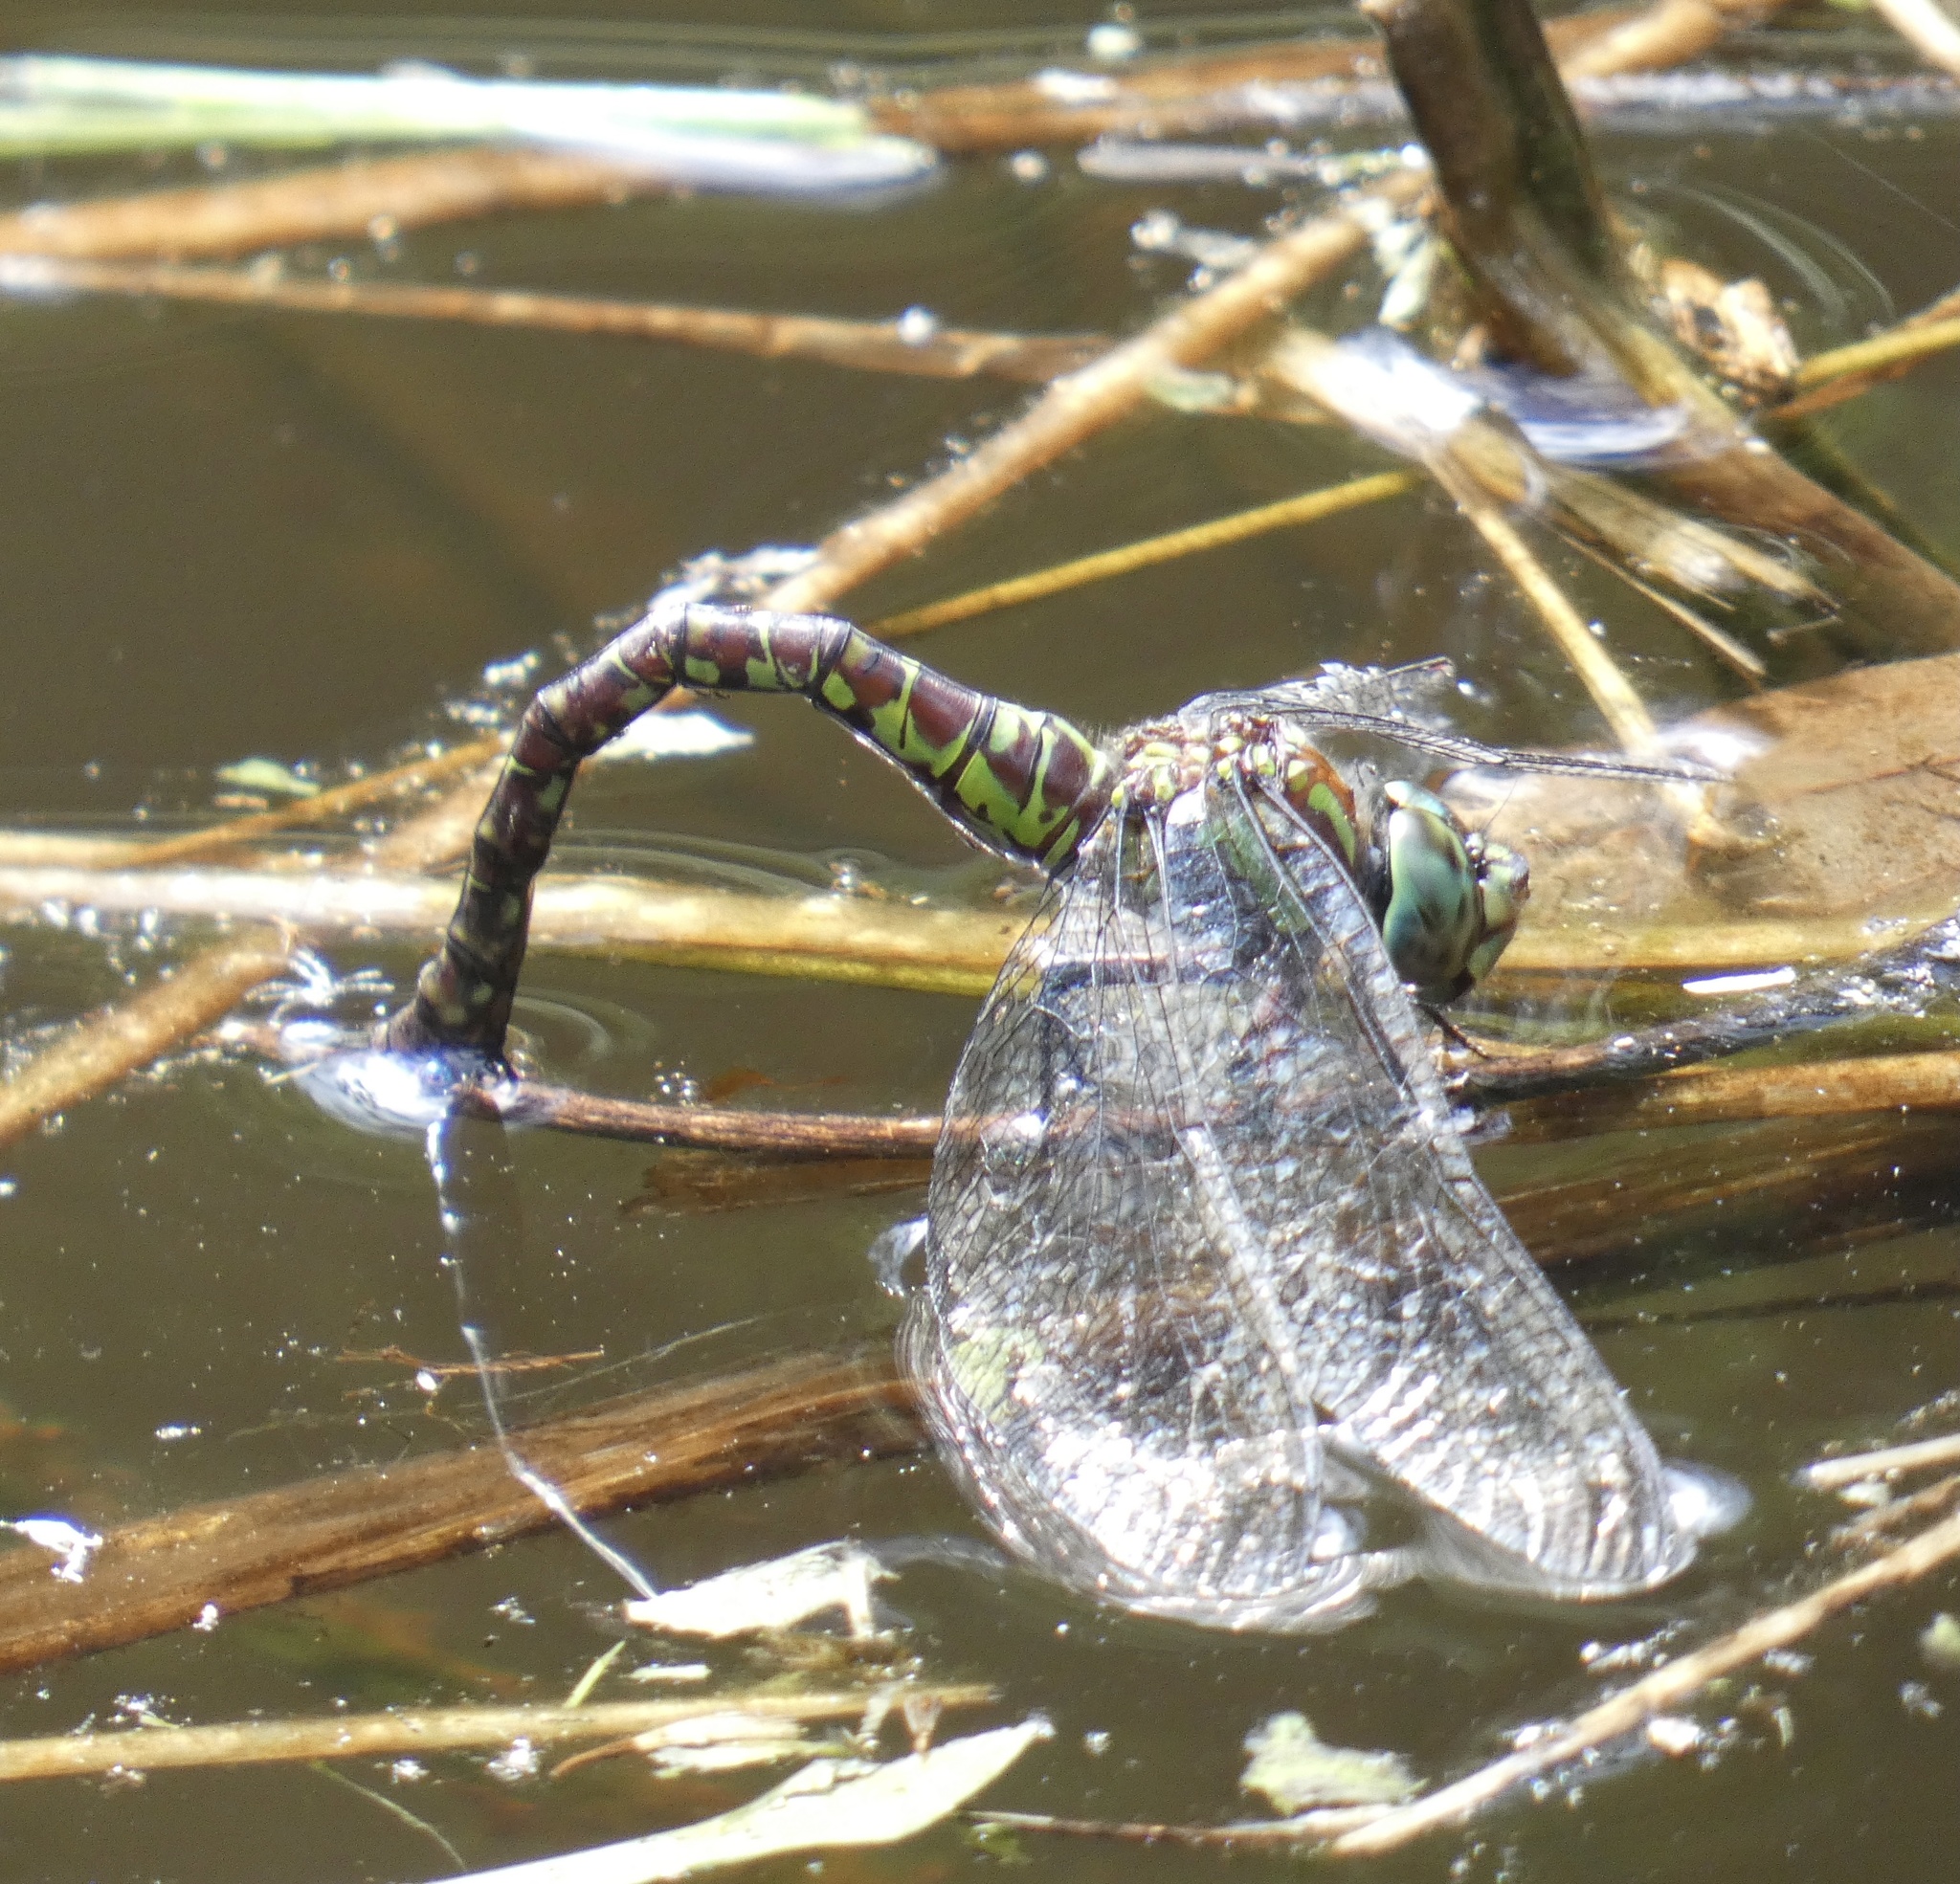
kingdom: Animalia
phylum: Arthropoda
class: Insecta
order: Odonata
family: Aeshnidae
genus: Rhionaeschna
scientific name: Rhionaeschna planaltica
